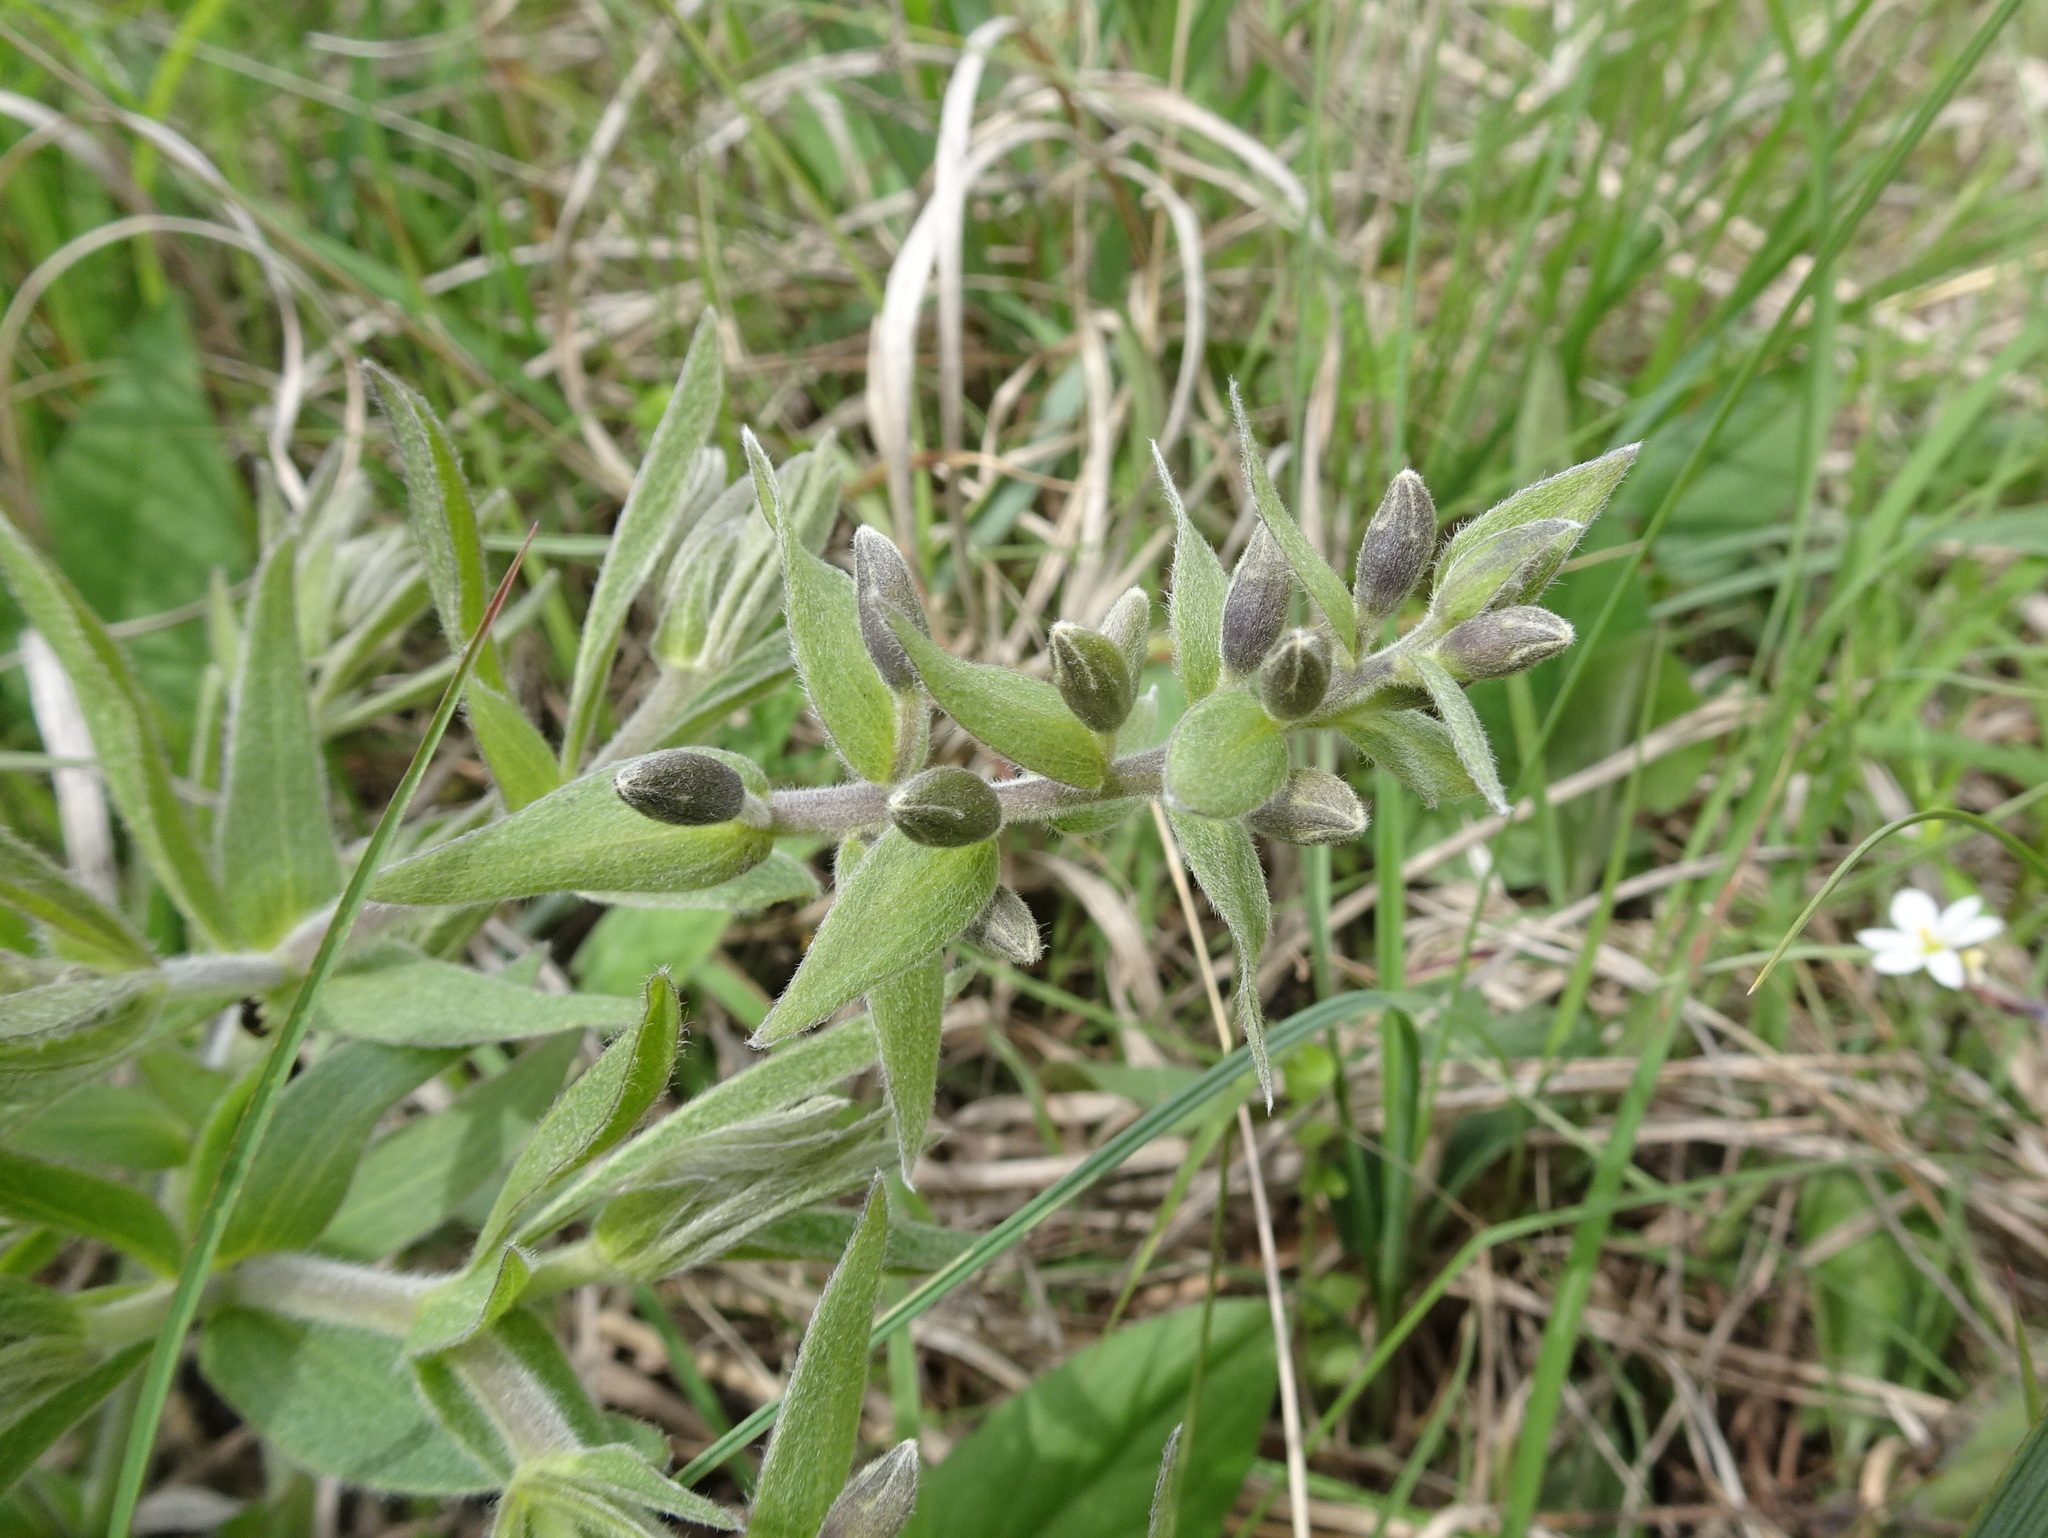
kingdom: Plantae
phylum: Tracheophyta
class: Magnoliopsida
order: Fabales
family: Fabaceae
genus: Baptisia
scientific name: Baptisia bracteata
